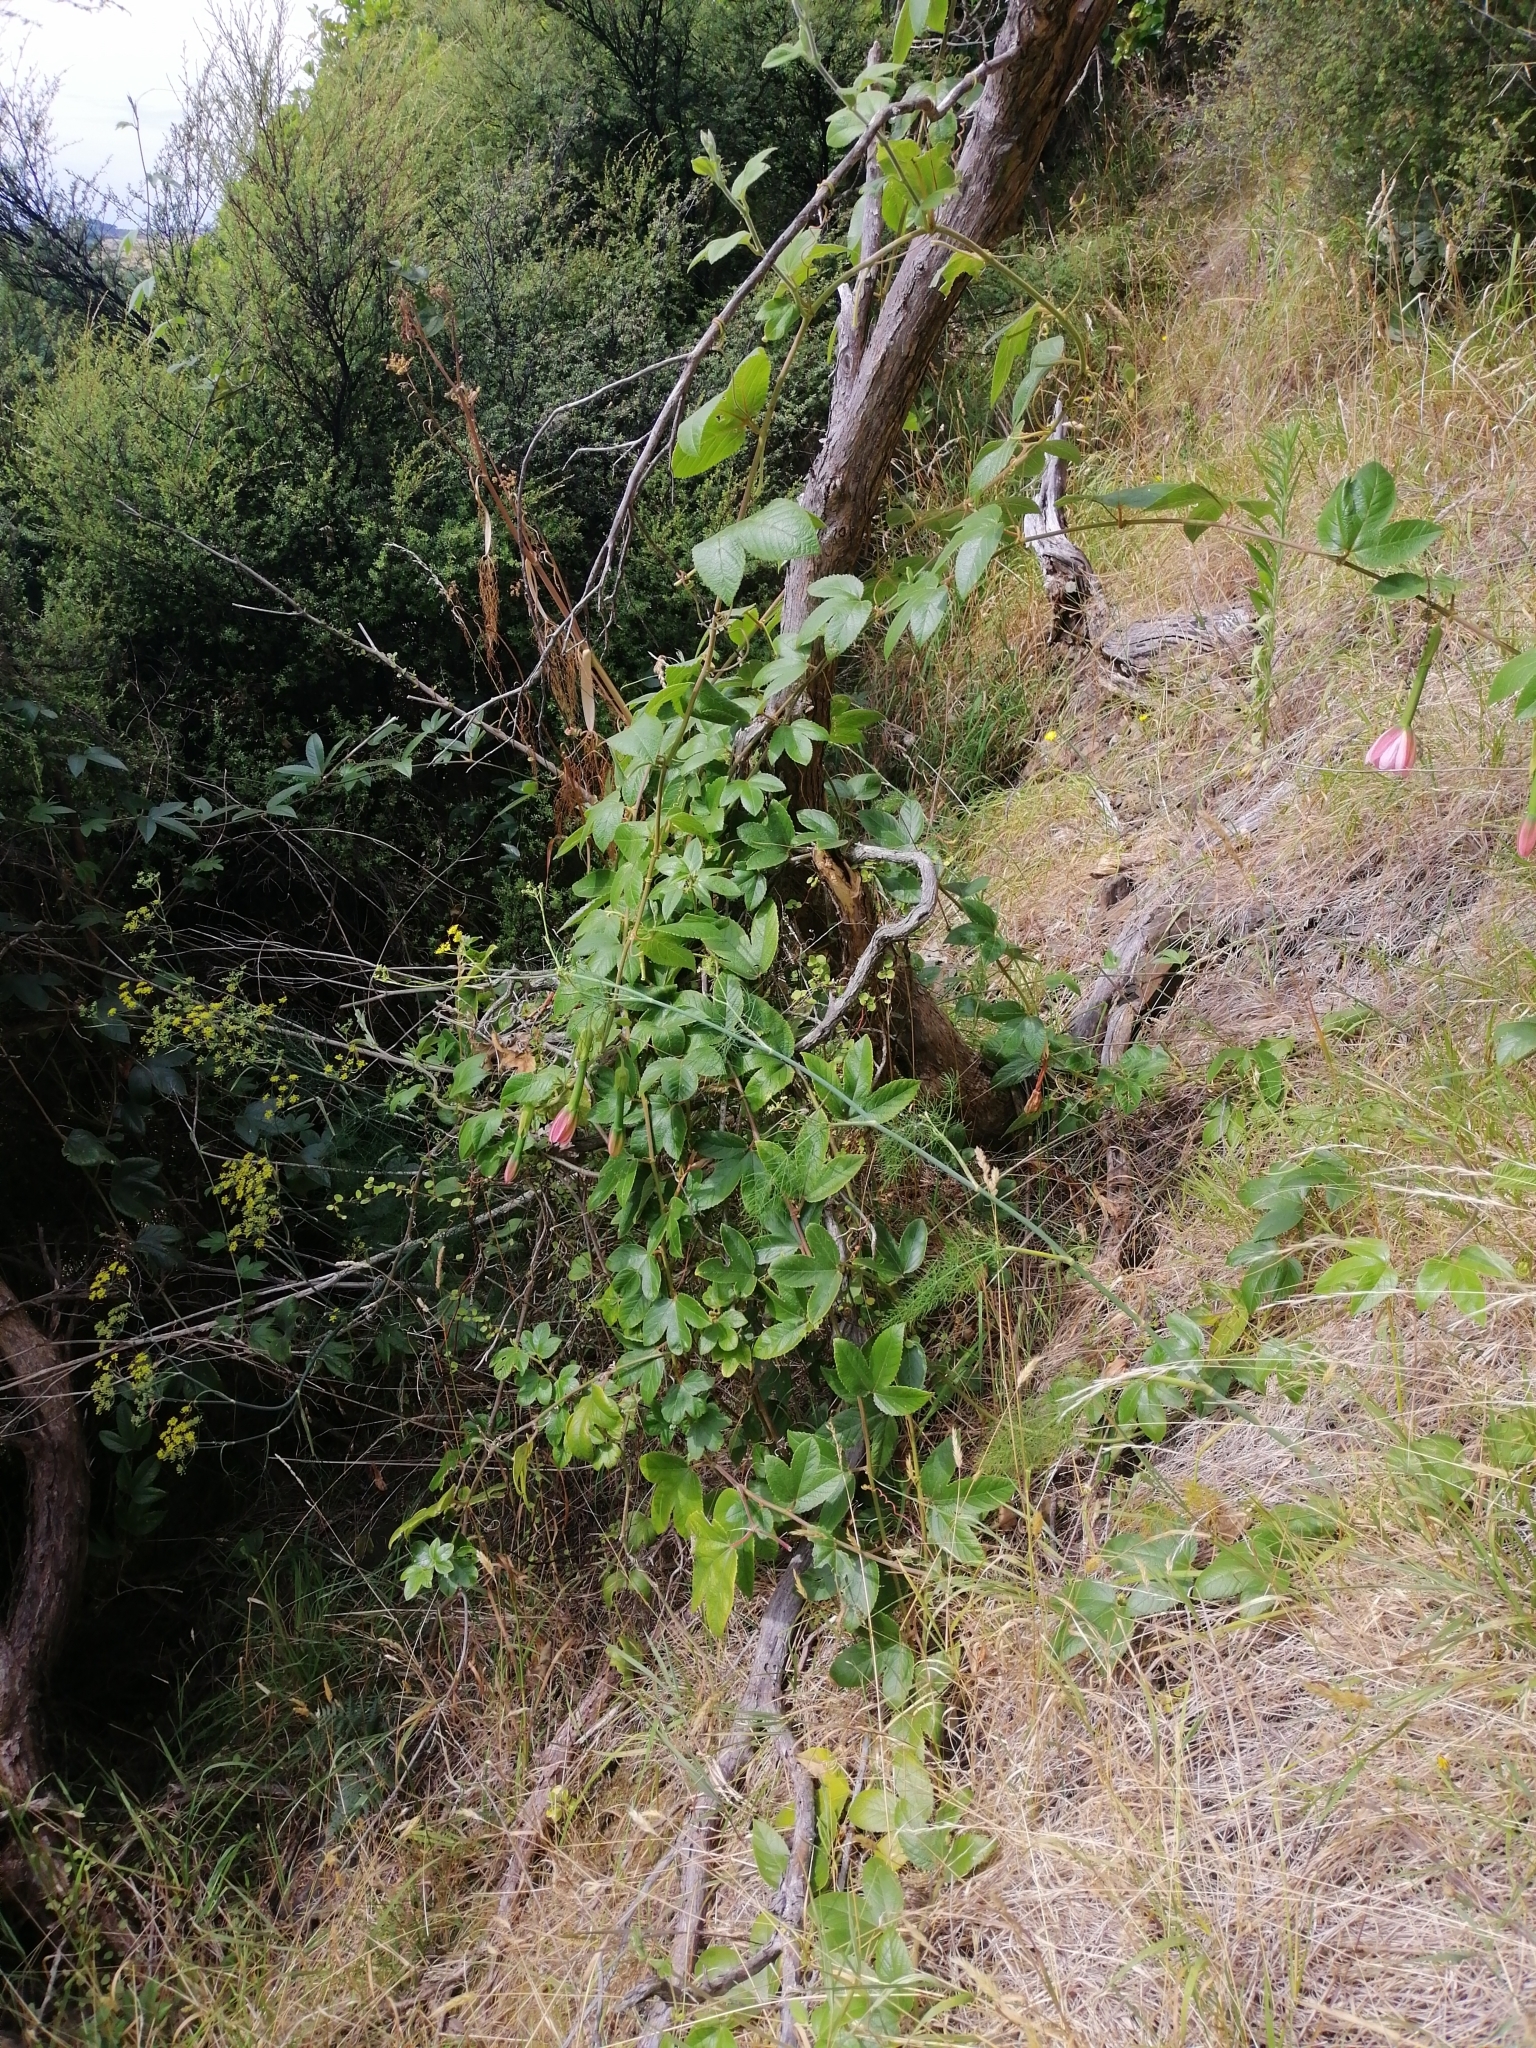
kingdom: Plantae
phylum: Tracheophyta
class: Magnoliopsida
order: Malpighiales
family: Passifloraceae
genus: Passiflora
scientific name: Passiflora tripartita
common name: Banana poka
